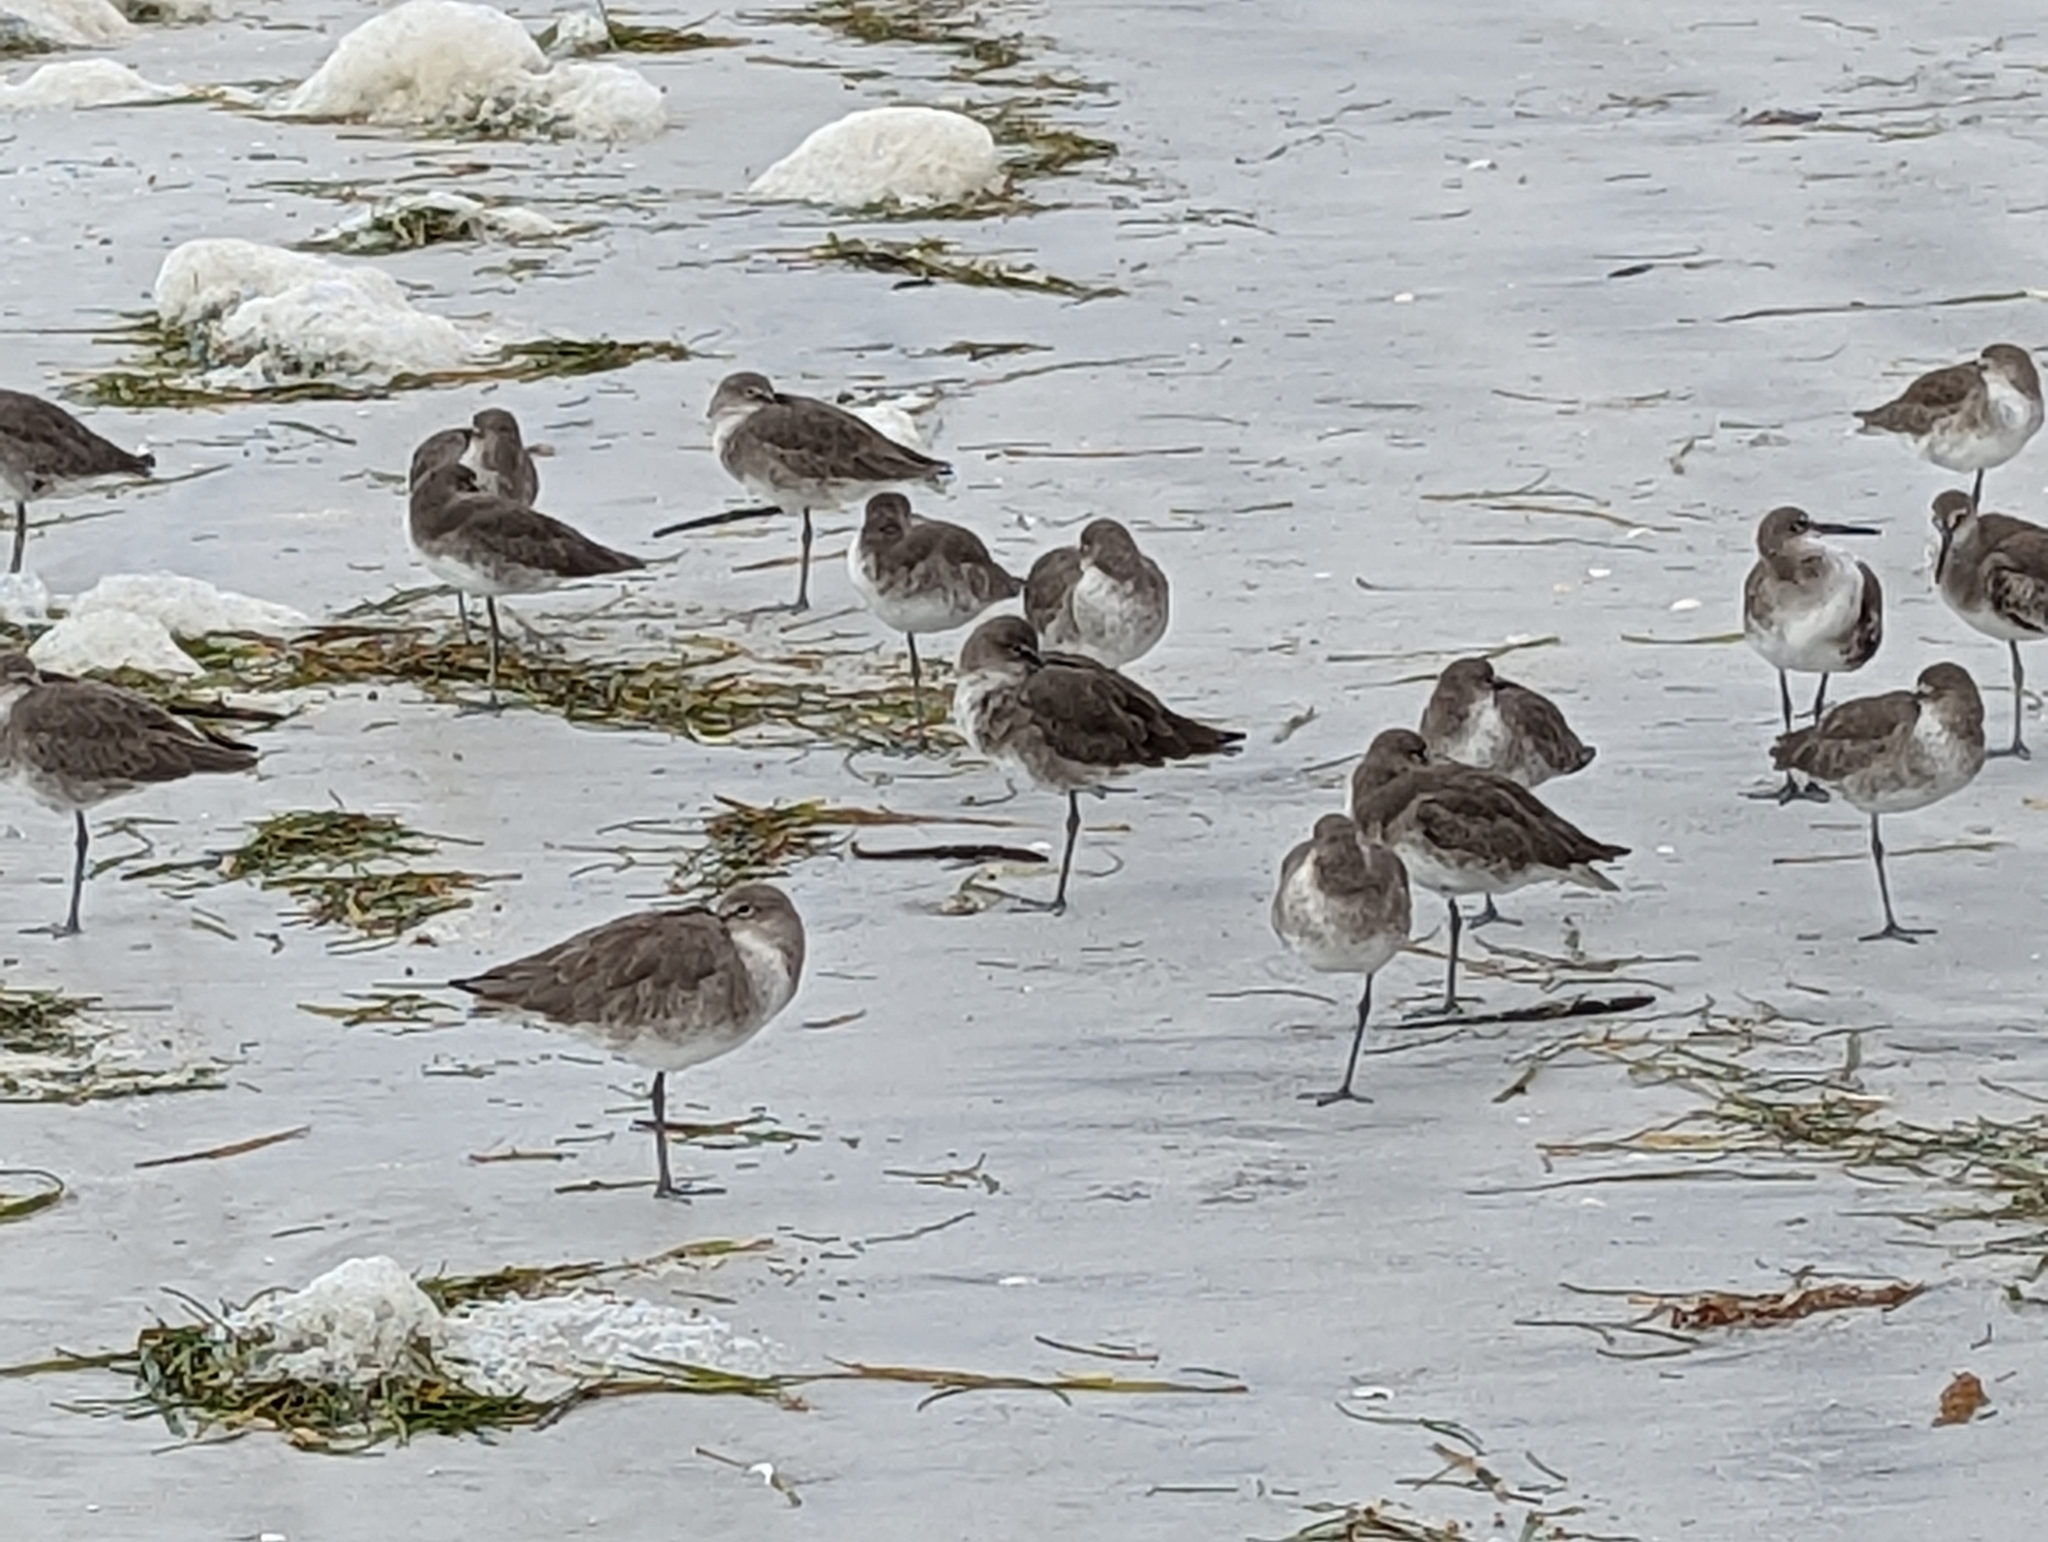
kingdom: Animalia
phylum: Chordata
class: Aves
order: Charadriiformes
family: Scolopacidae
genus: Tringa
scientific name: Tringa semipalmata
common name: Willet
